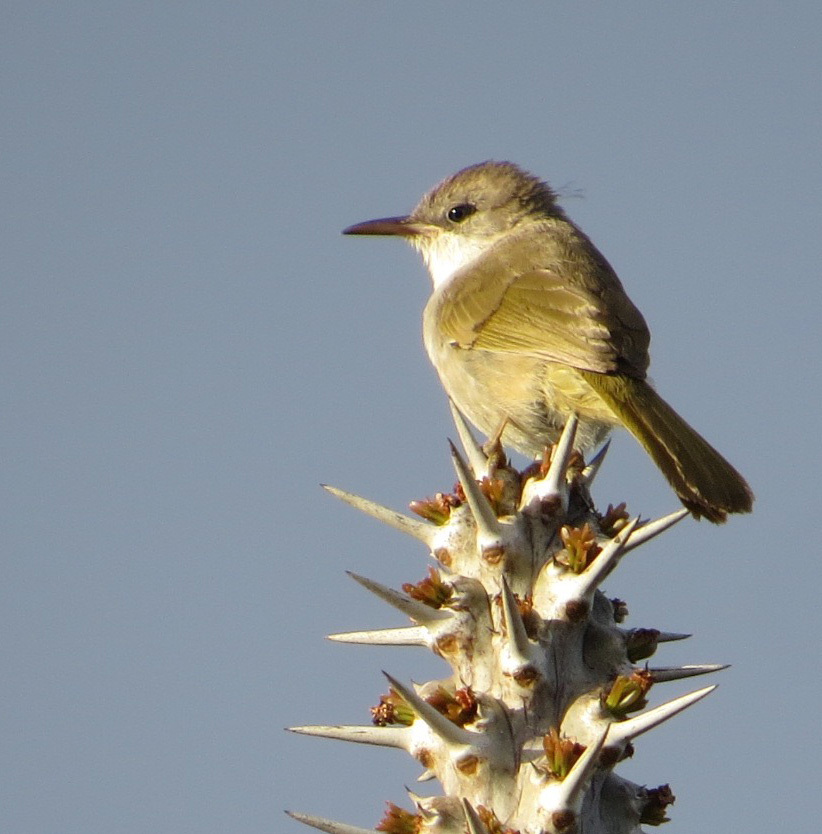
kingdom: Animalia
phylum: Chordata
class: Aves
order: Passeriformes
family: Bernieridae
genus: Thamnornis
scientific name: Thamnornis chloropetoides
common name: Thamnornis
